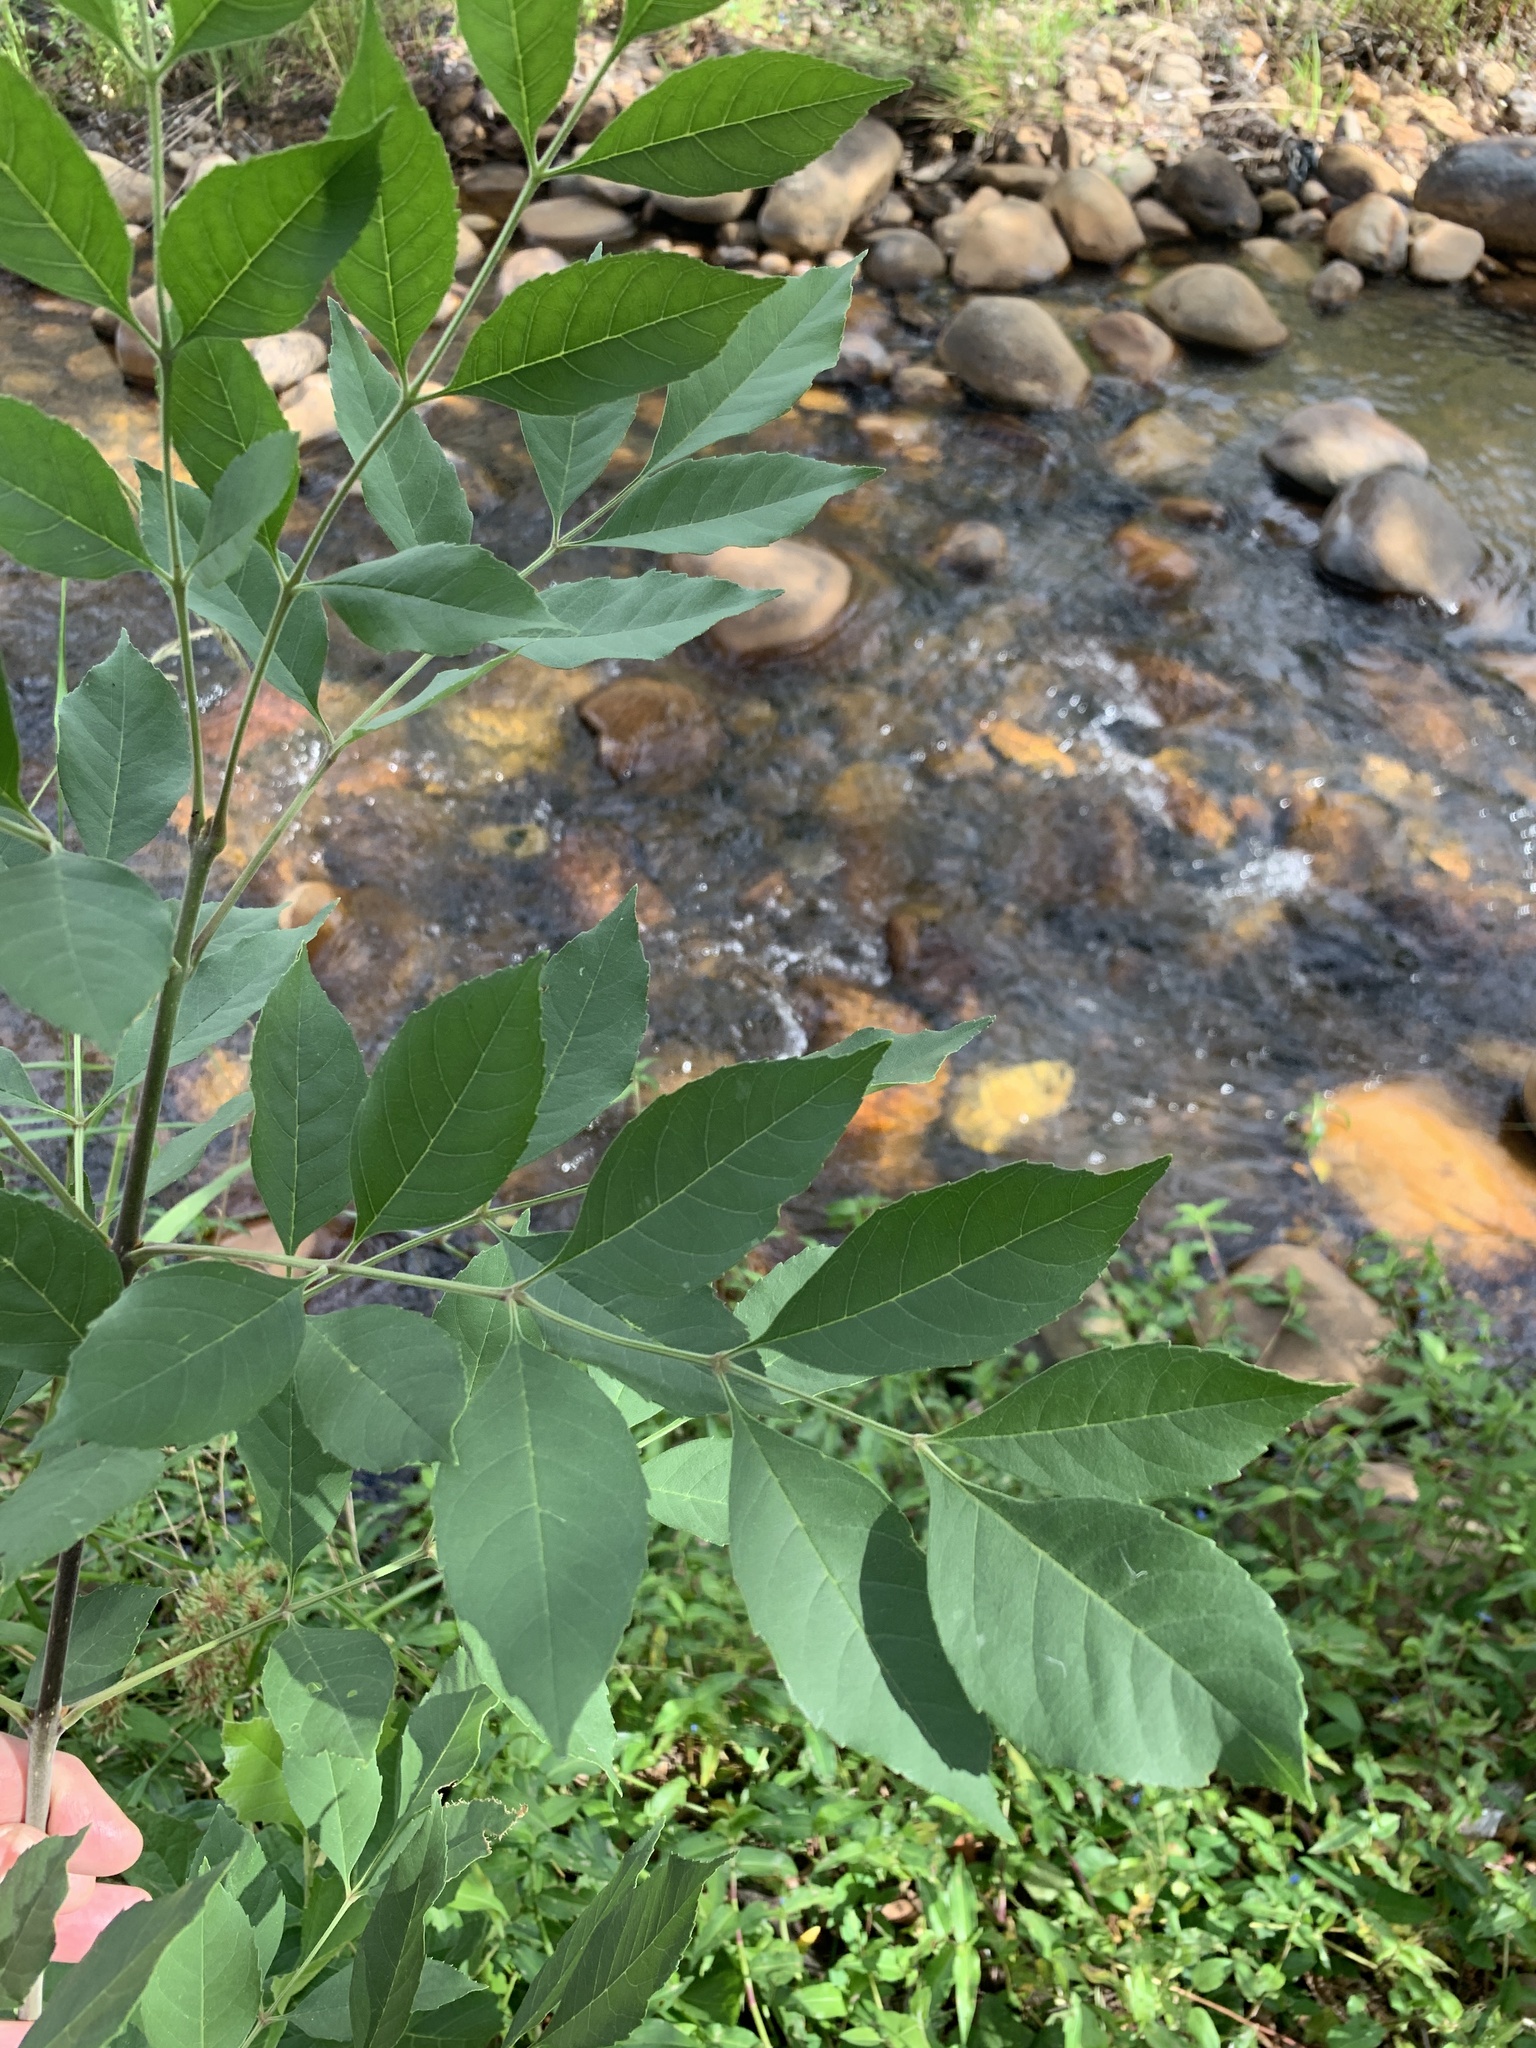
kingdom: Plantae
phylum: Tracheophyta
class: Magnoliopsida
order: Lamiales
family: Oleaceae
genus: Fraxinus
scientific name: Fraxinus pennsylvanica
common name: Green ash
